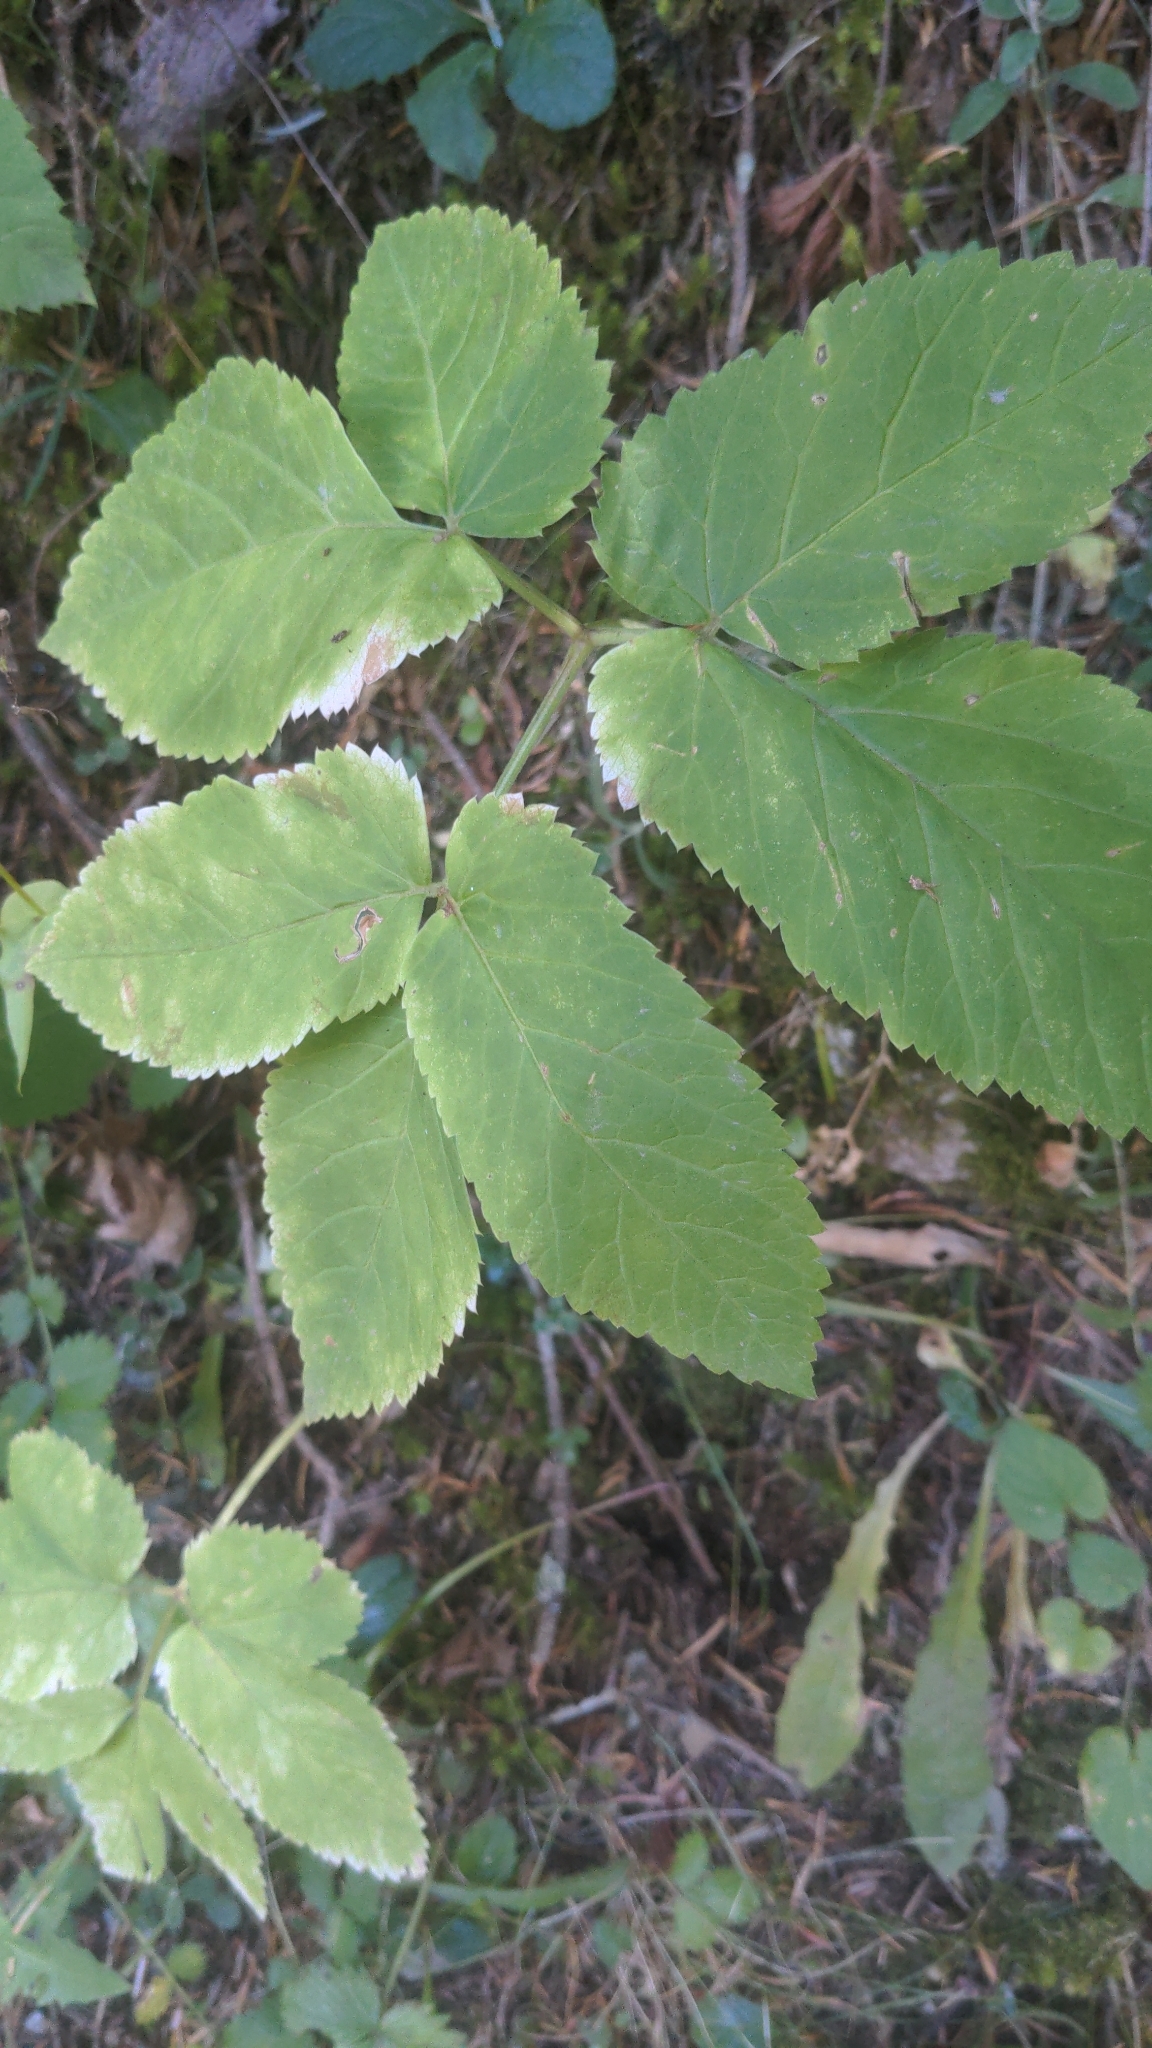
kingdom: Plantae
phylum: Tracheophyta
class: Magnoliopsida
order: Apiales
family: Apiaceae
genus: Aegopodium
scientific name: Aegopodium podagraria
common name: Ground-elder
